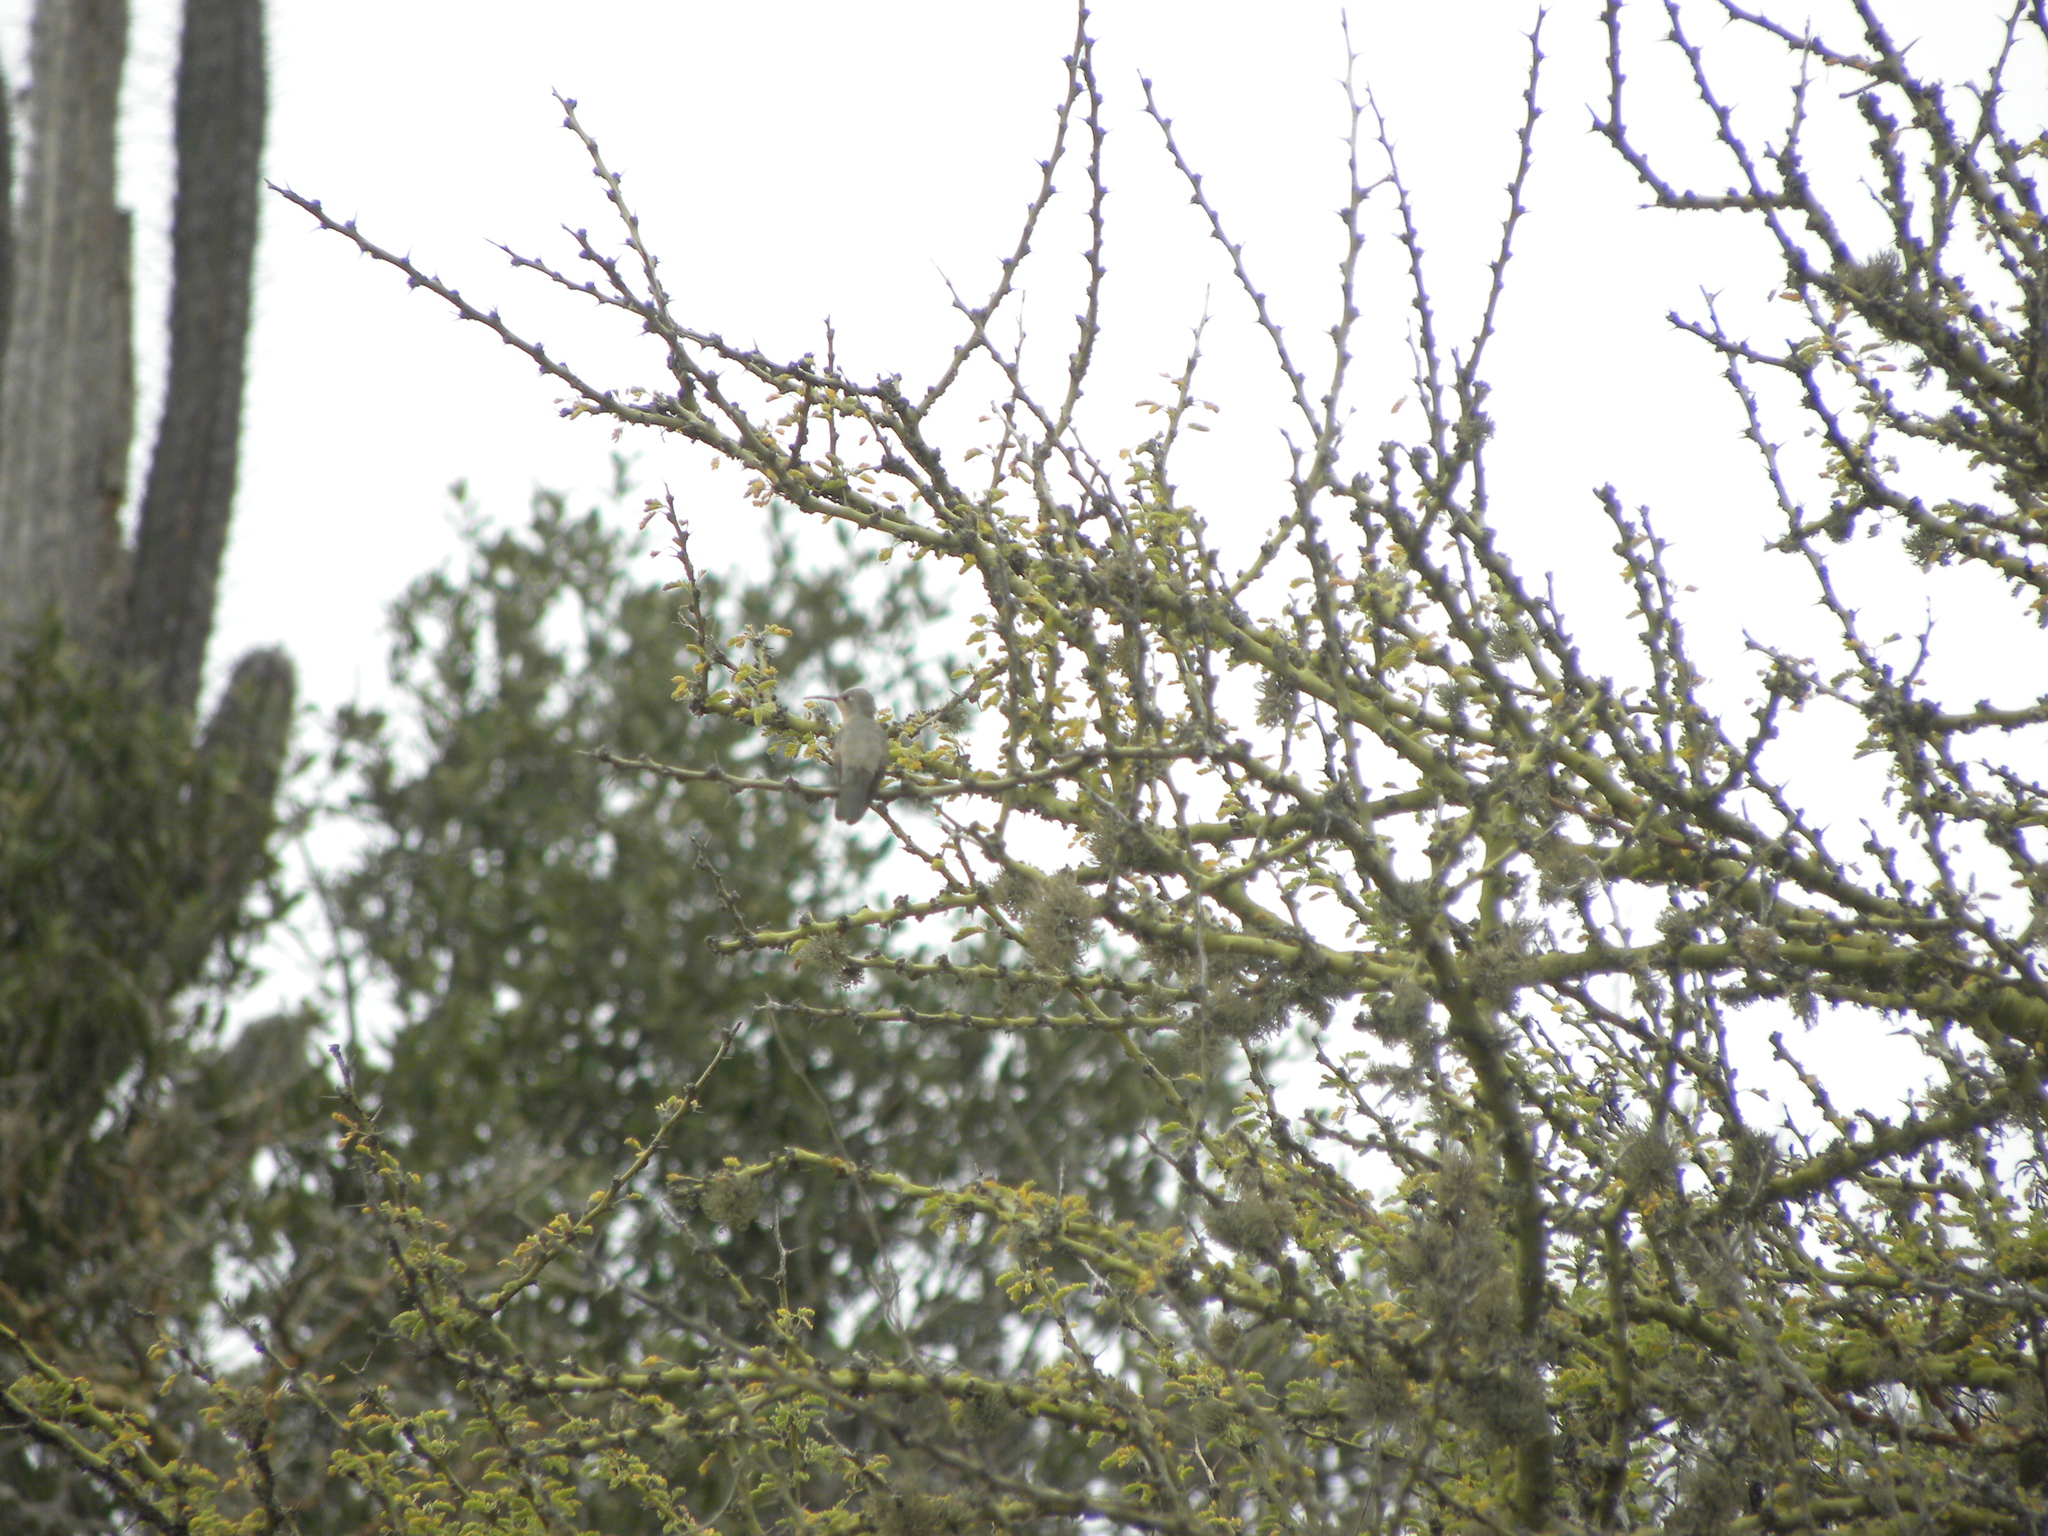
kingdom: Animalia
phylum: Chordata
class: Aves
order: Apodiformes
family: Trochilidae
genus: Leucippus
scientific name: Leucippus fallax
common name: Buffy hummingbird
